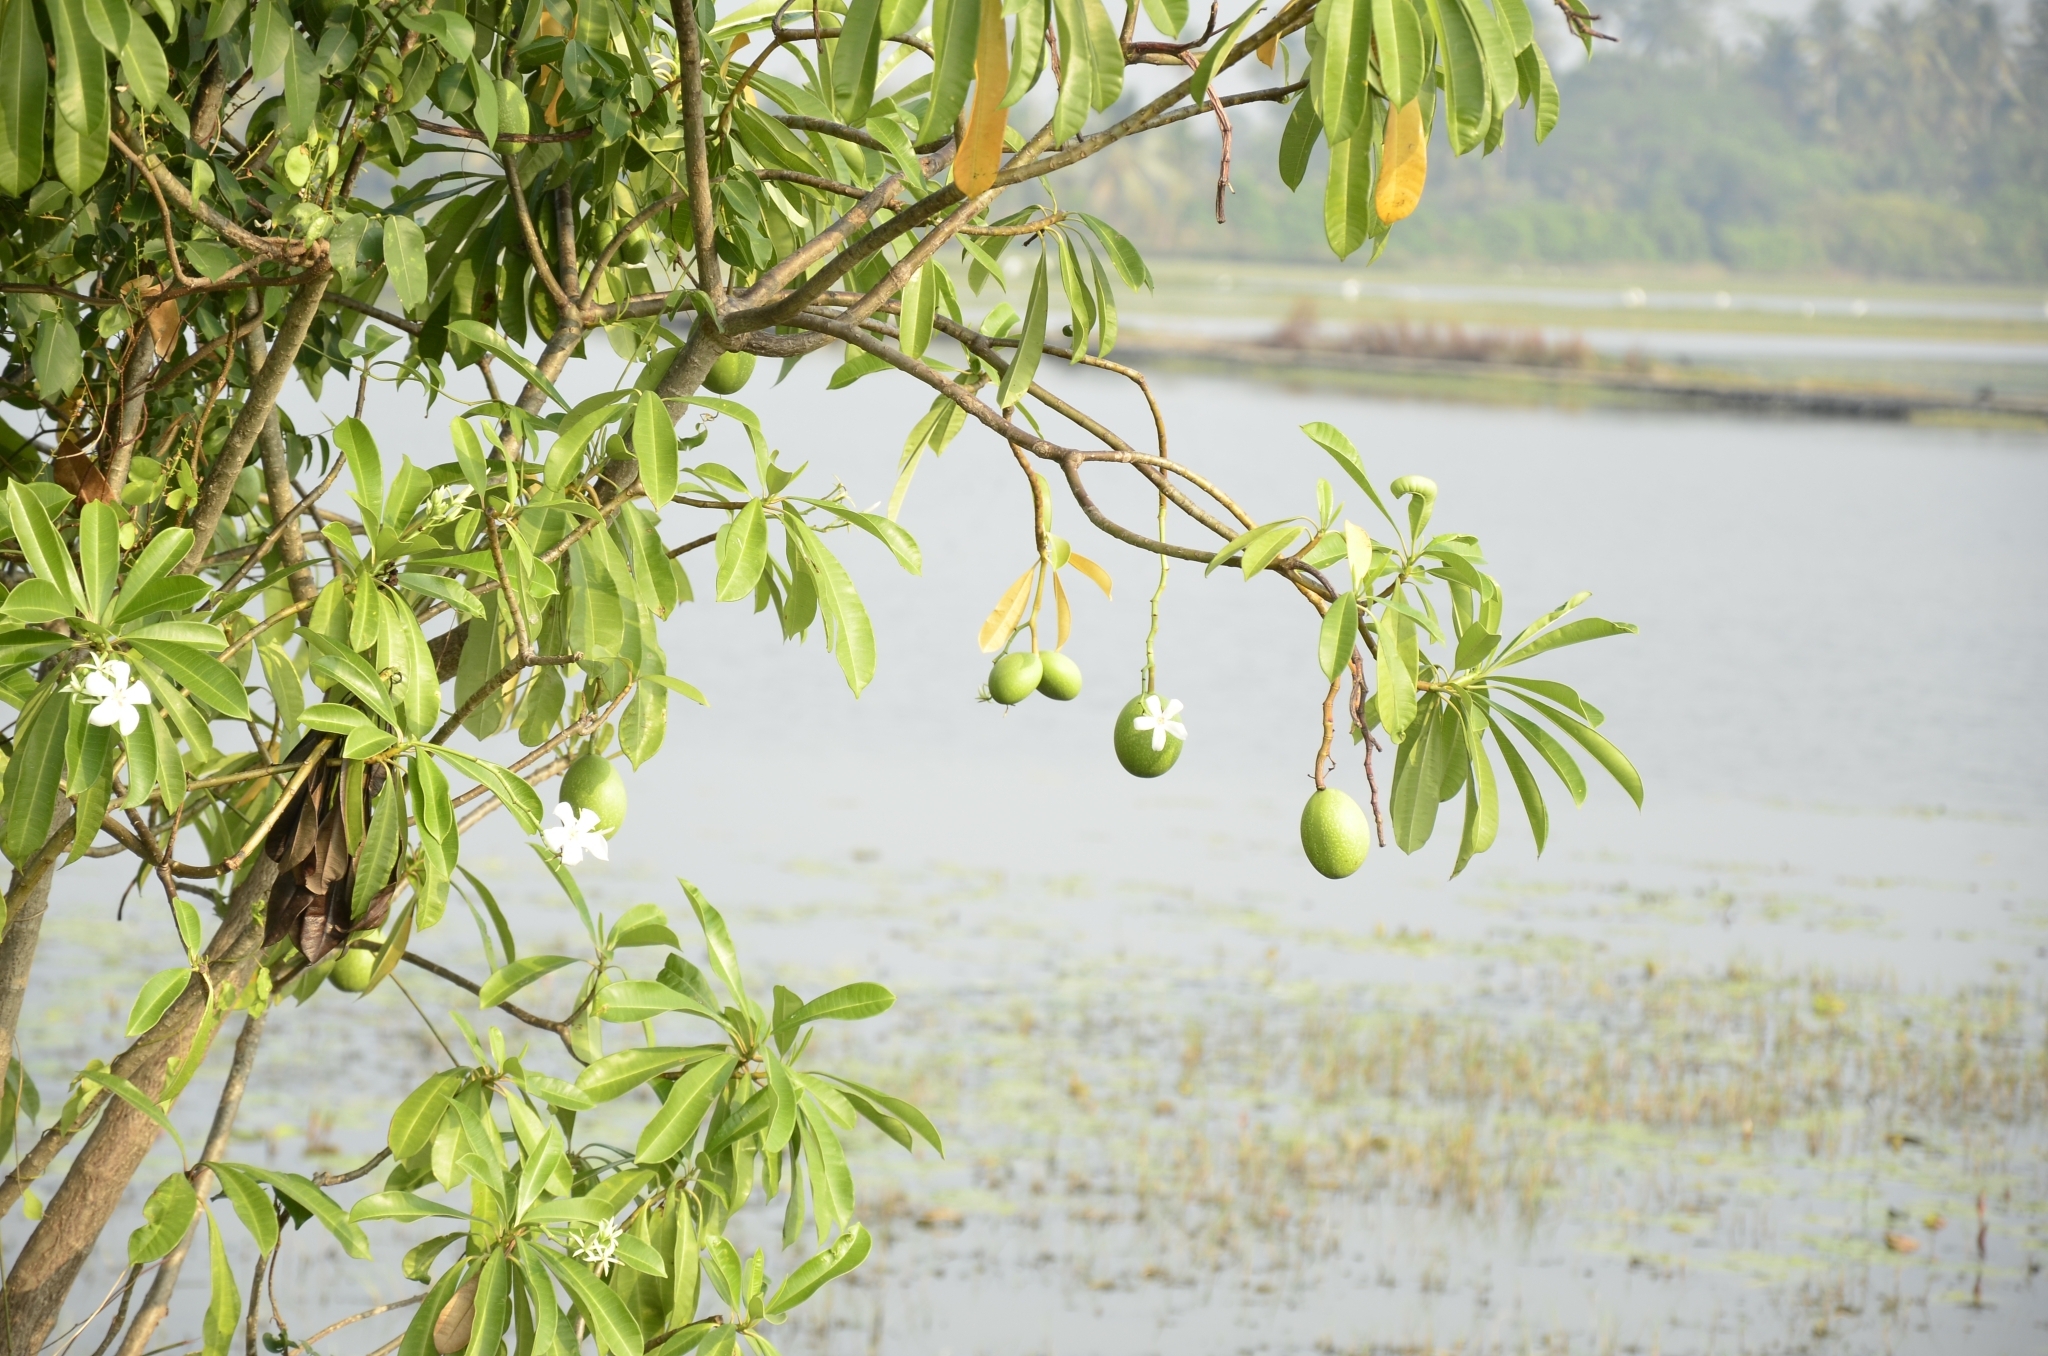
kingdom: Plantae
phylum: Tracheophyta
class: Magnoliopsida
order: Gentianales
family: Apocynaceae
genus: Cerbera
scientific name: Cerbera odollam
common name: Pong-pong
